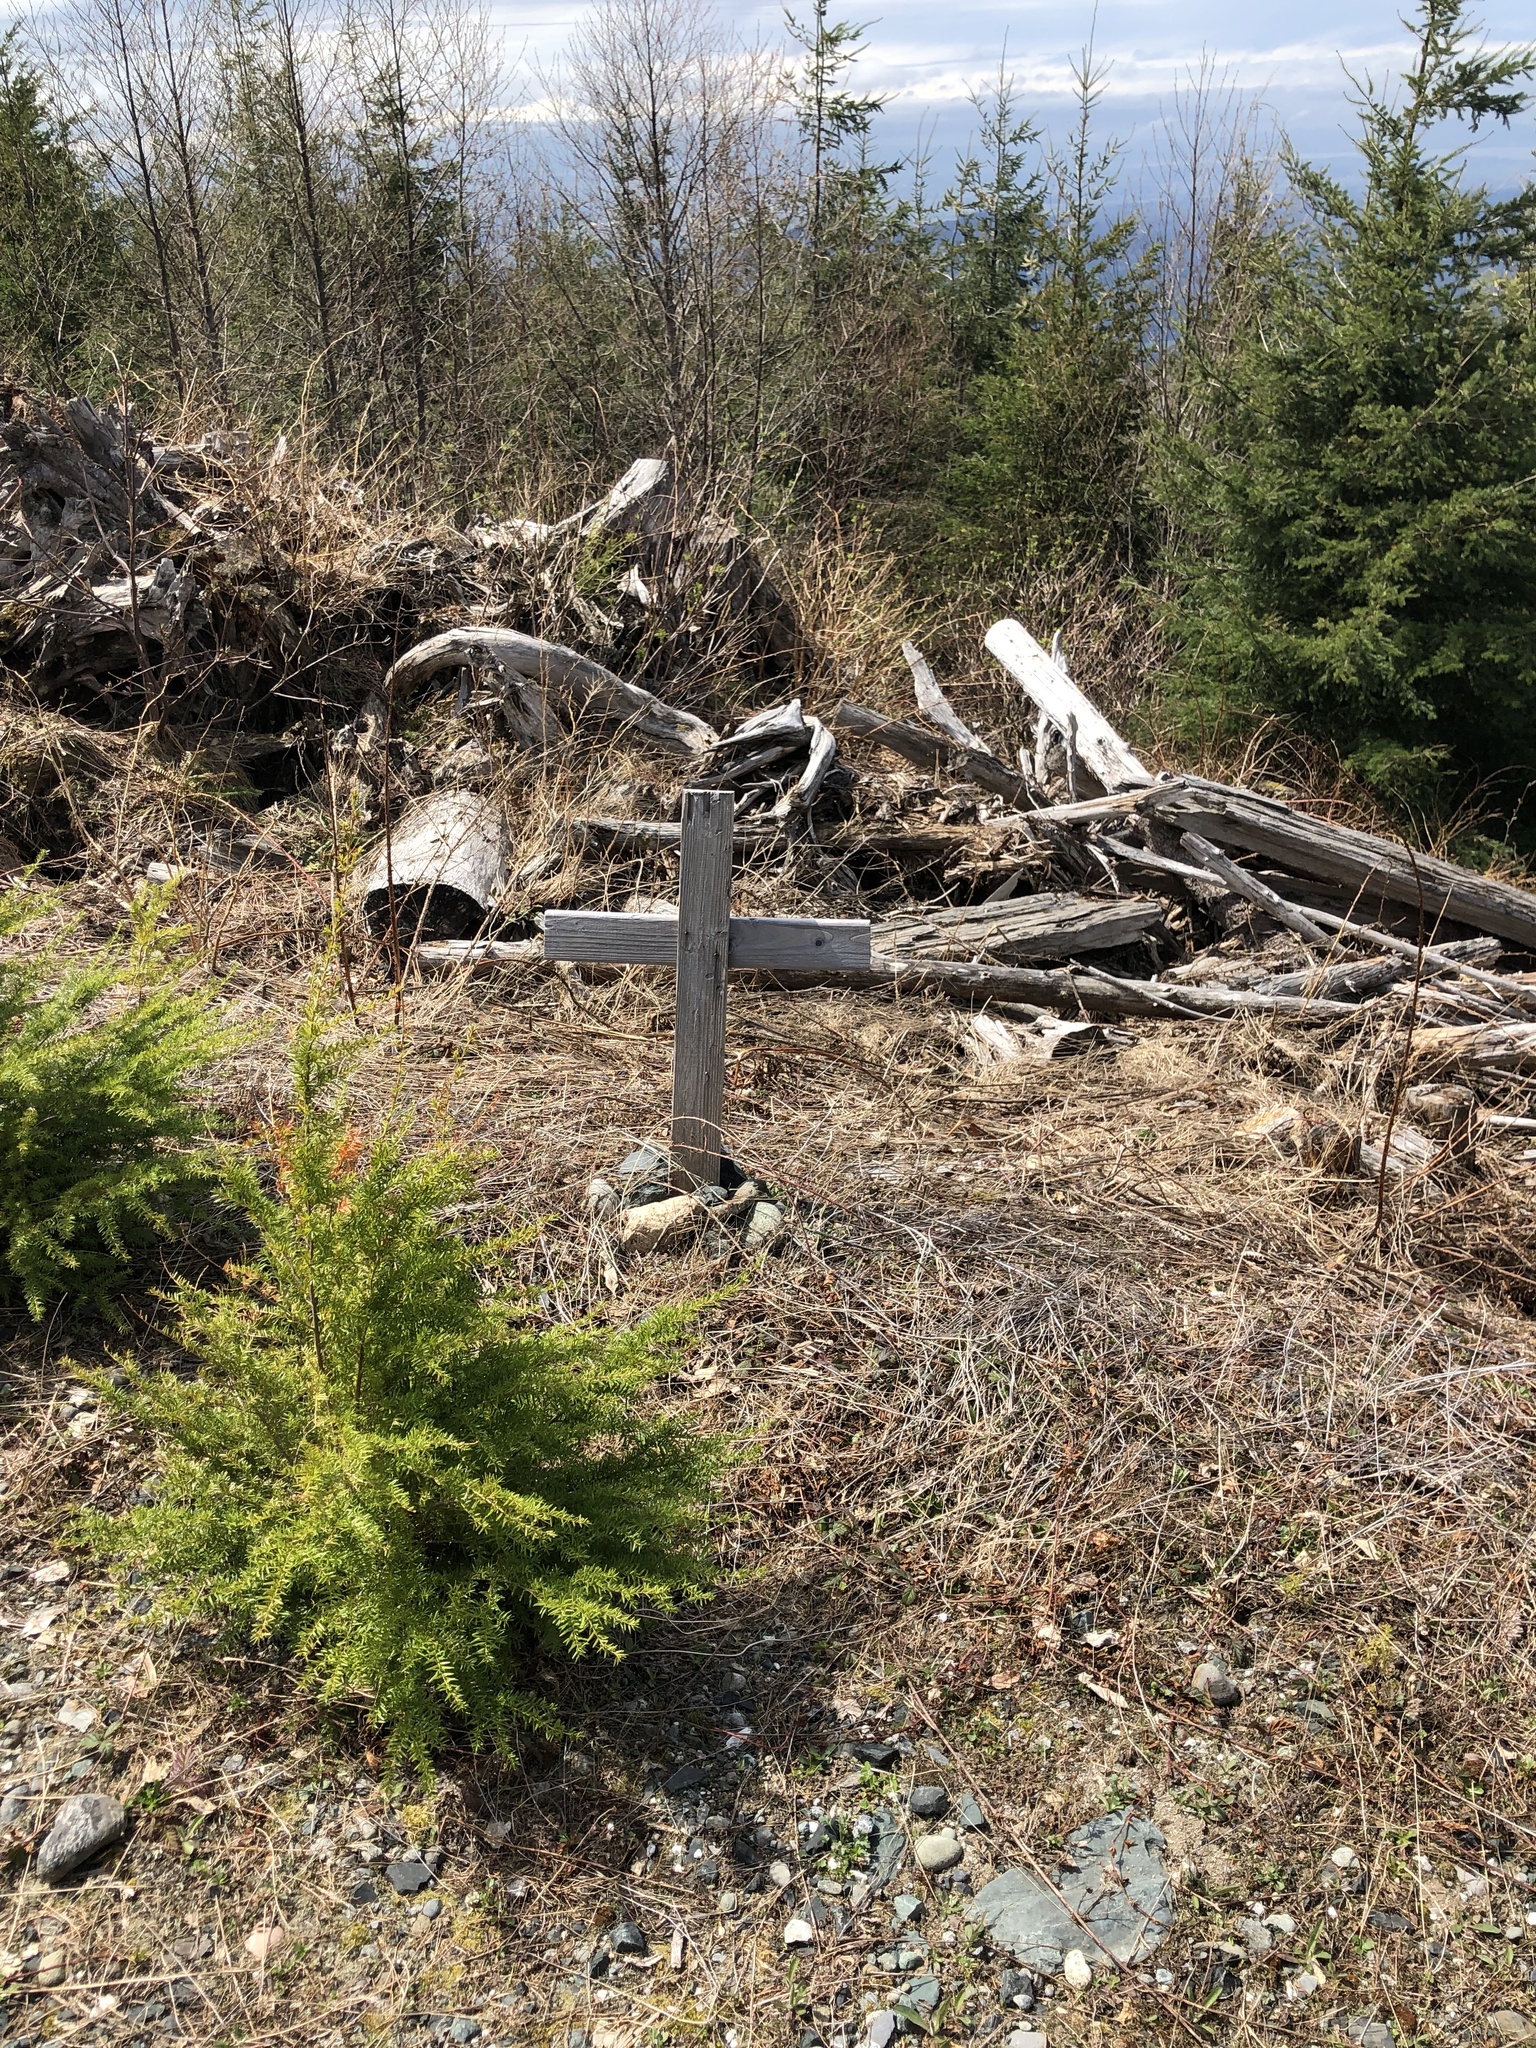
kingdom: Plantae
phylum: Tracheophyta
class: Pinopsida
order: Pinales
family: Pinaceae
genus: Tsuga
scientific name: Tsuga heterophylla
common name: Western hemlock
